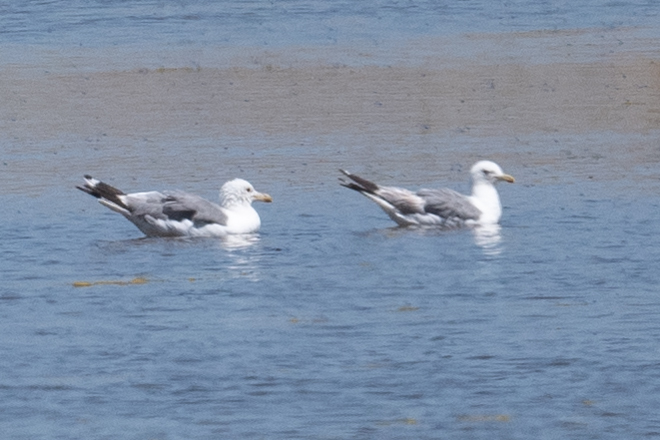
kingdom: Animalia
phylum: Chordata
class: Aves
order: Charadriiformes
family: Laridae
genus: Larus
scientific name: Larus californicus
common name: California gull
